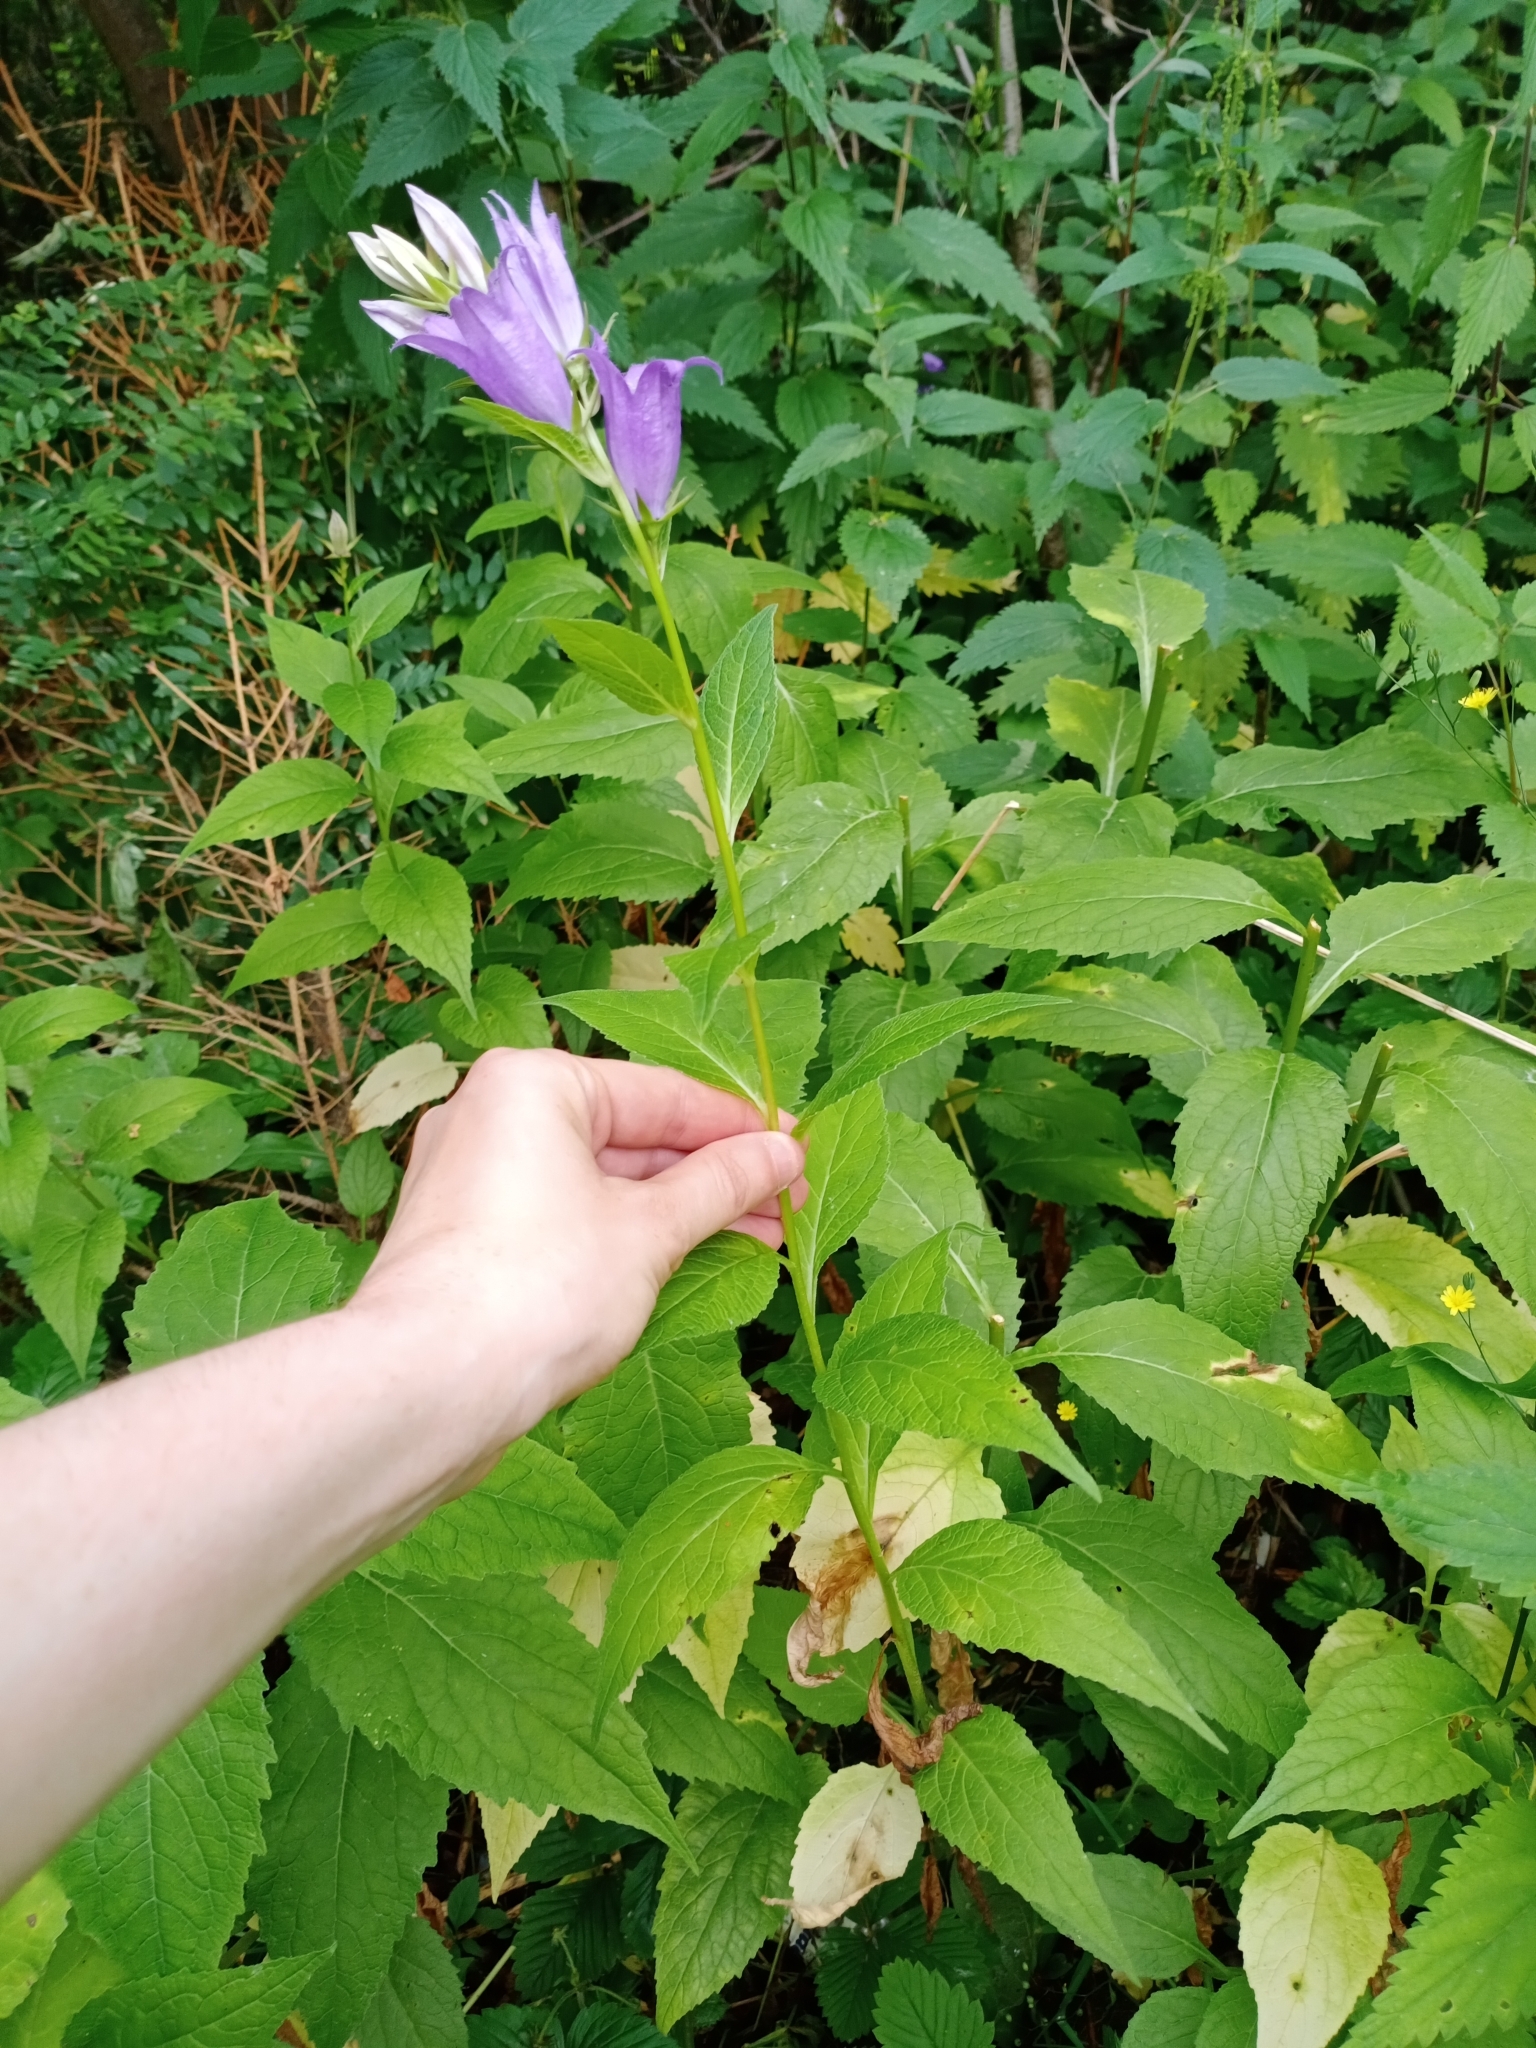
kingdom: Plantae
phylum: Tracheophyta
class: Magnoliopsida
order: Asterales
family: Campanulaceae
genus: Campanula
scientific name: Campanula latifolia
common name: Giant bellflower
